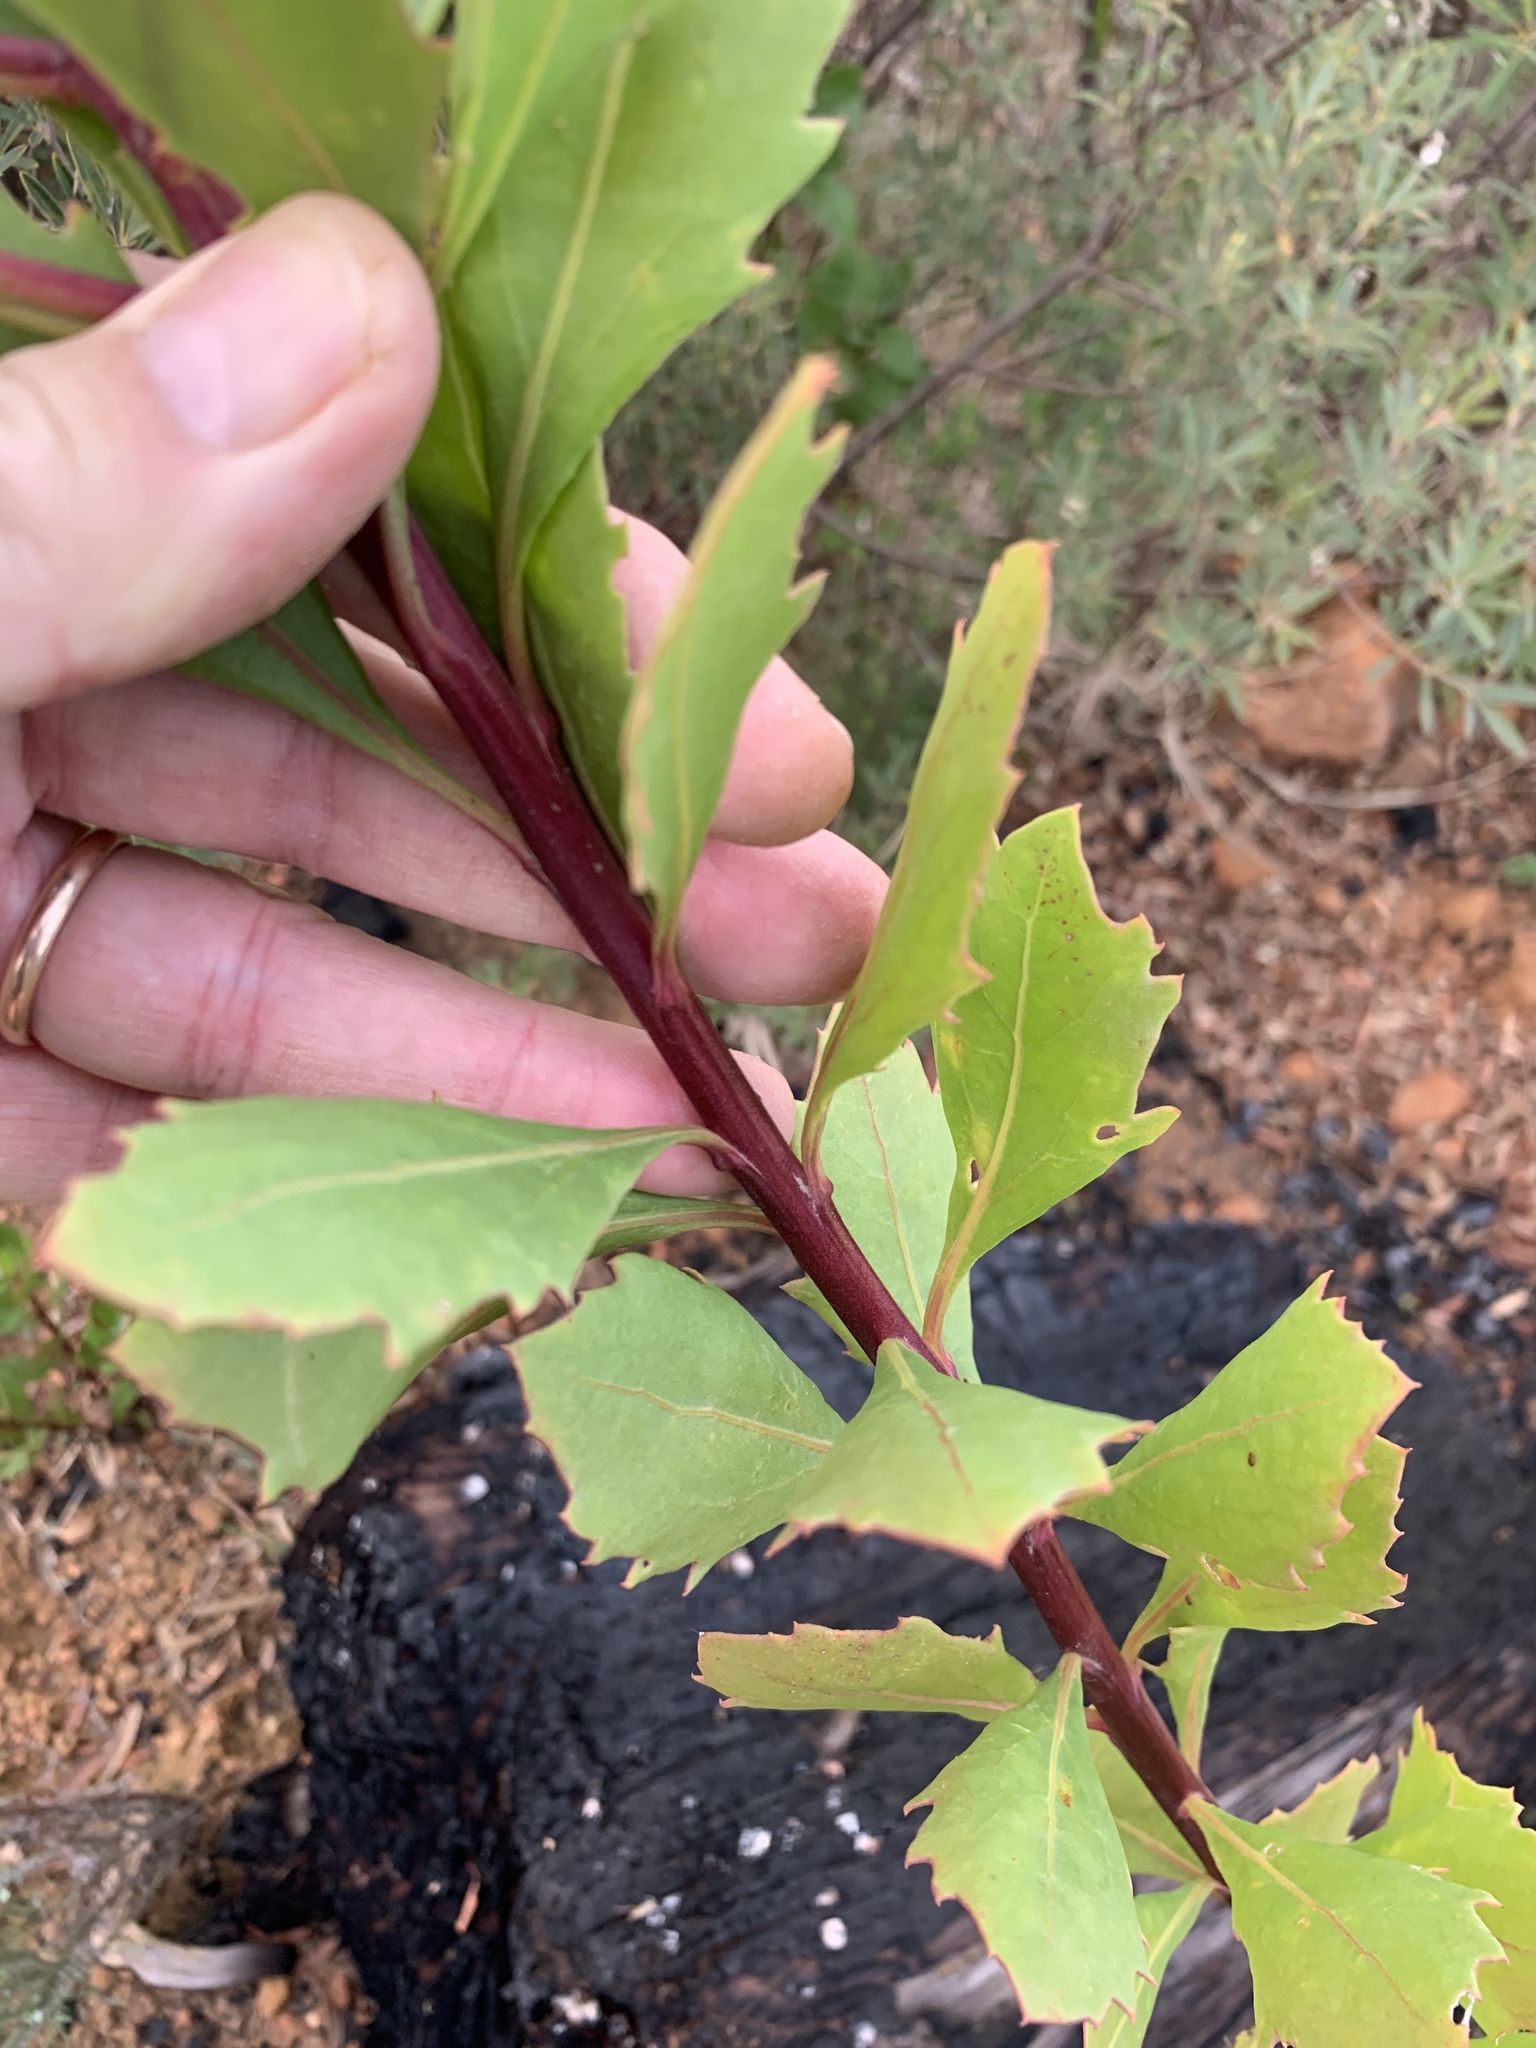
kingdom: Plantae
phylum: Tracheophyta
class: Magnoliopsida
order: Asterales
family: Asteraceae
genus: Osteospermum
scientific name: Osteospermum moniliferum
